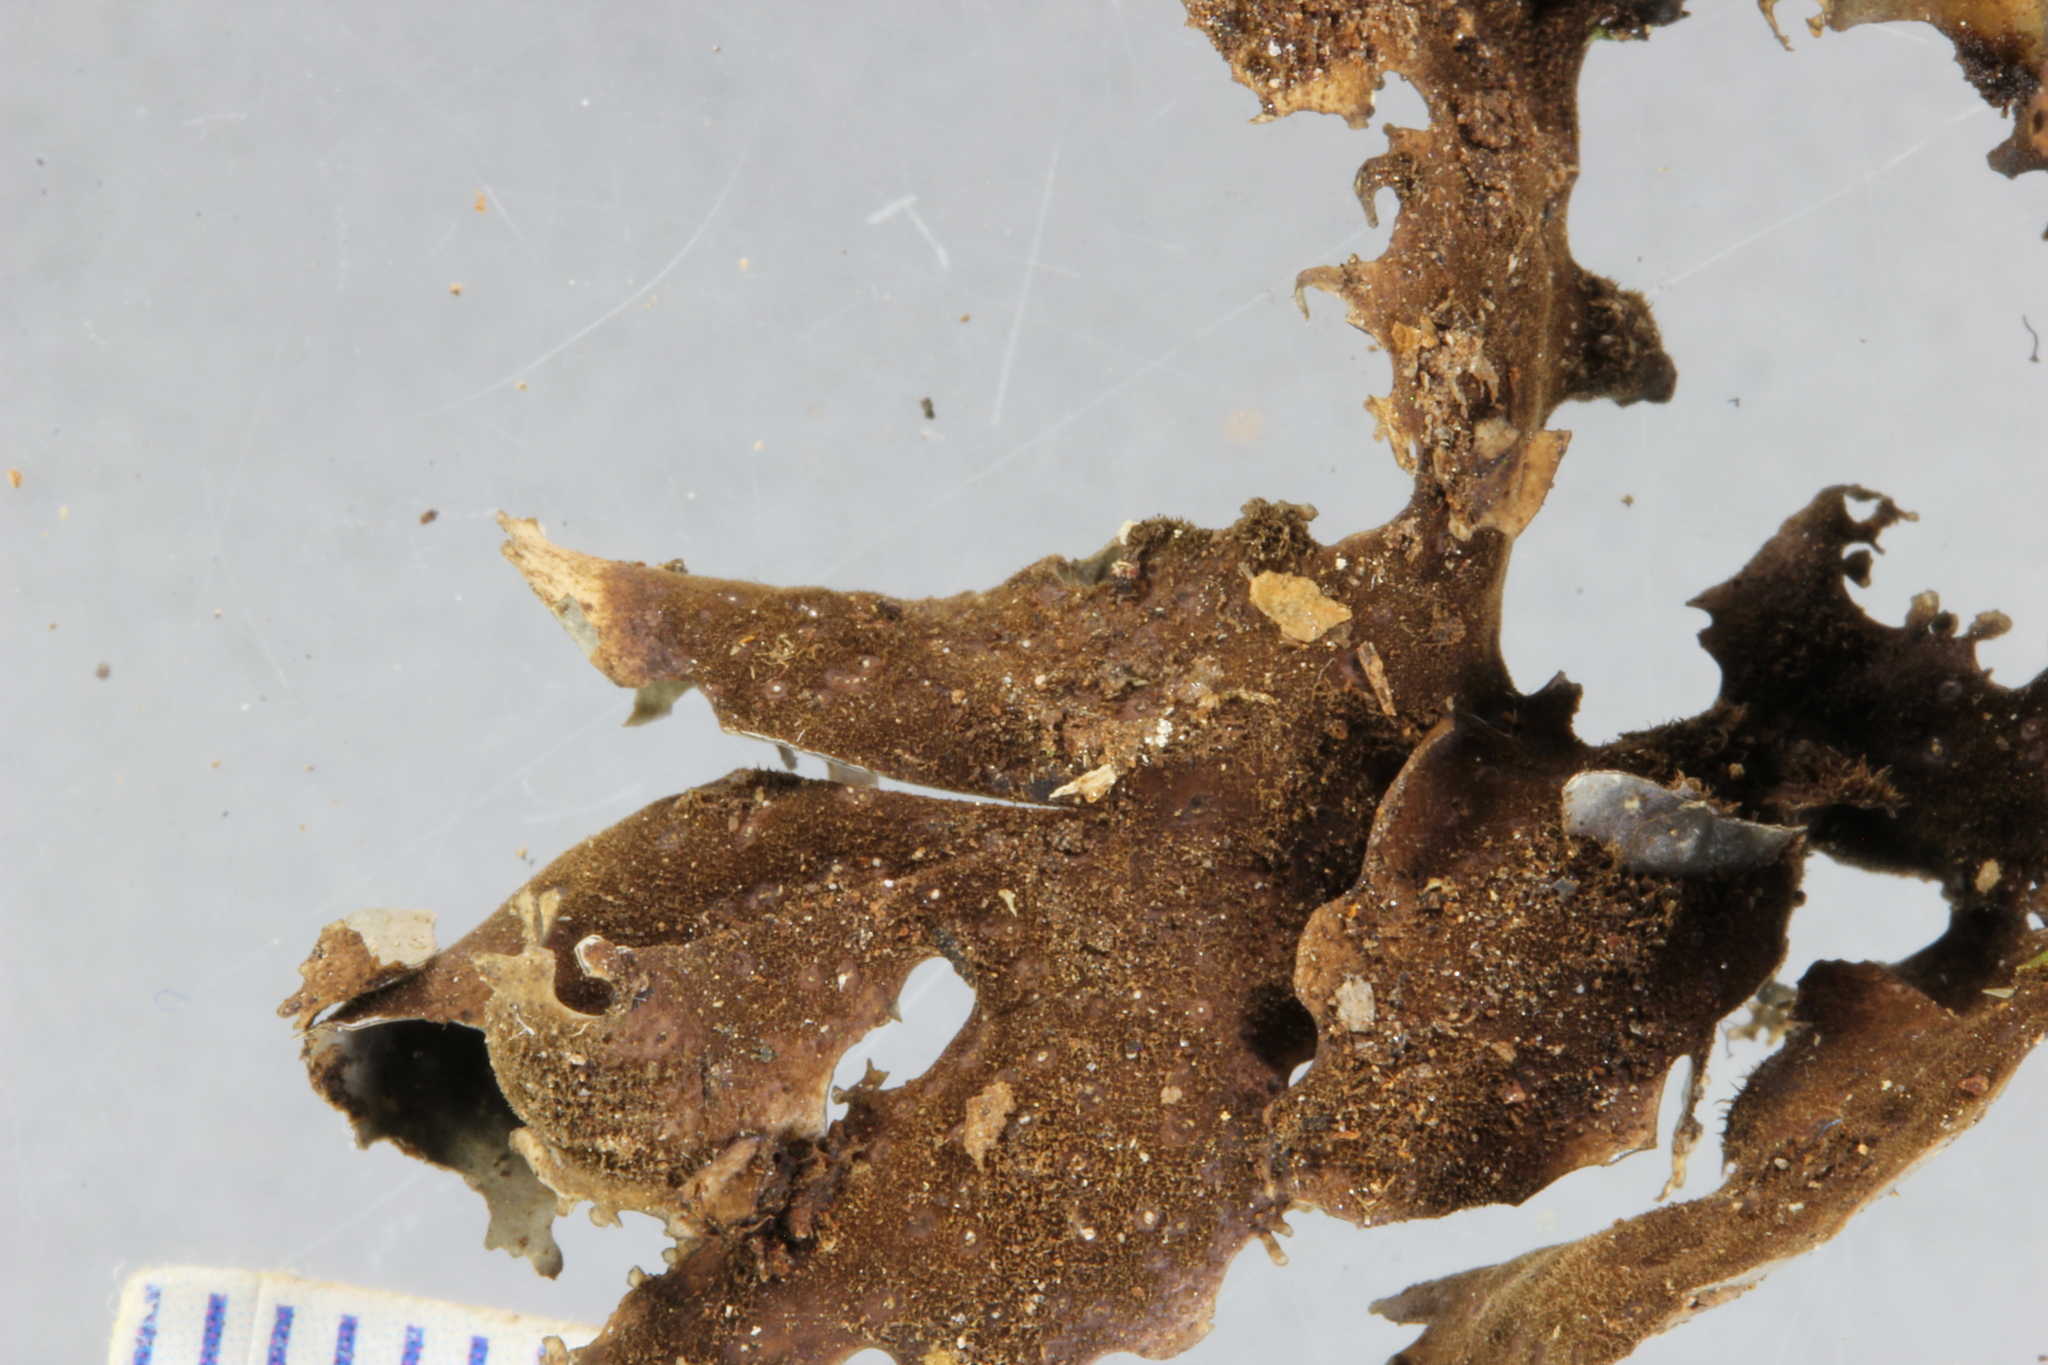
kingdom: Fungi
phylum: Ascomycota
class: Lecanoromycetes
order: Peltigerales
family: Lobariaceae
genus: Pseudocyphellaria
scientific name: Pseudocyphellaria fimbriatoides
